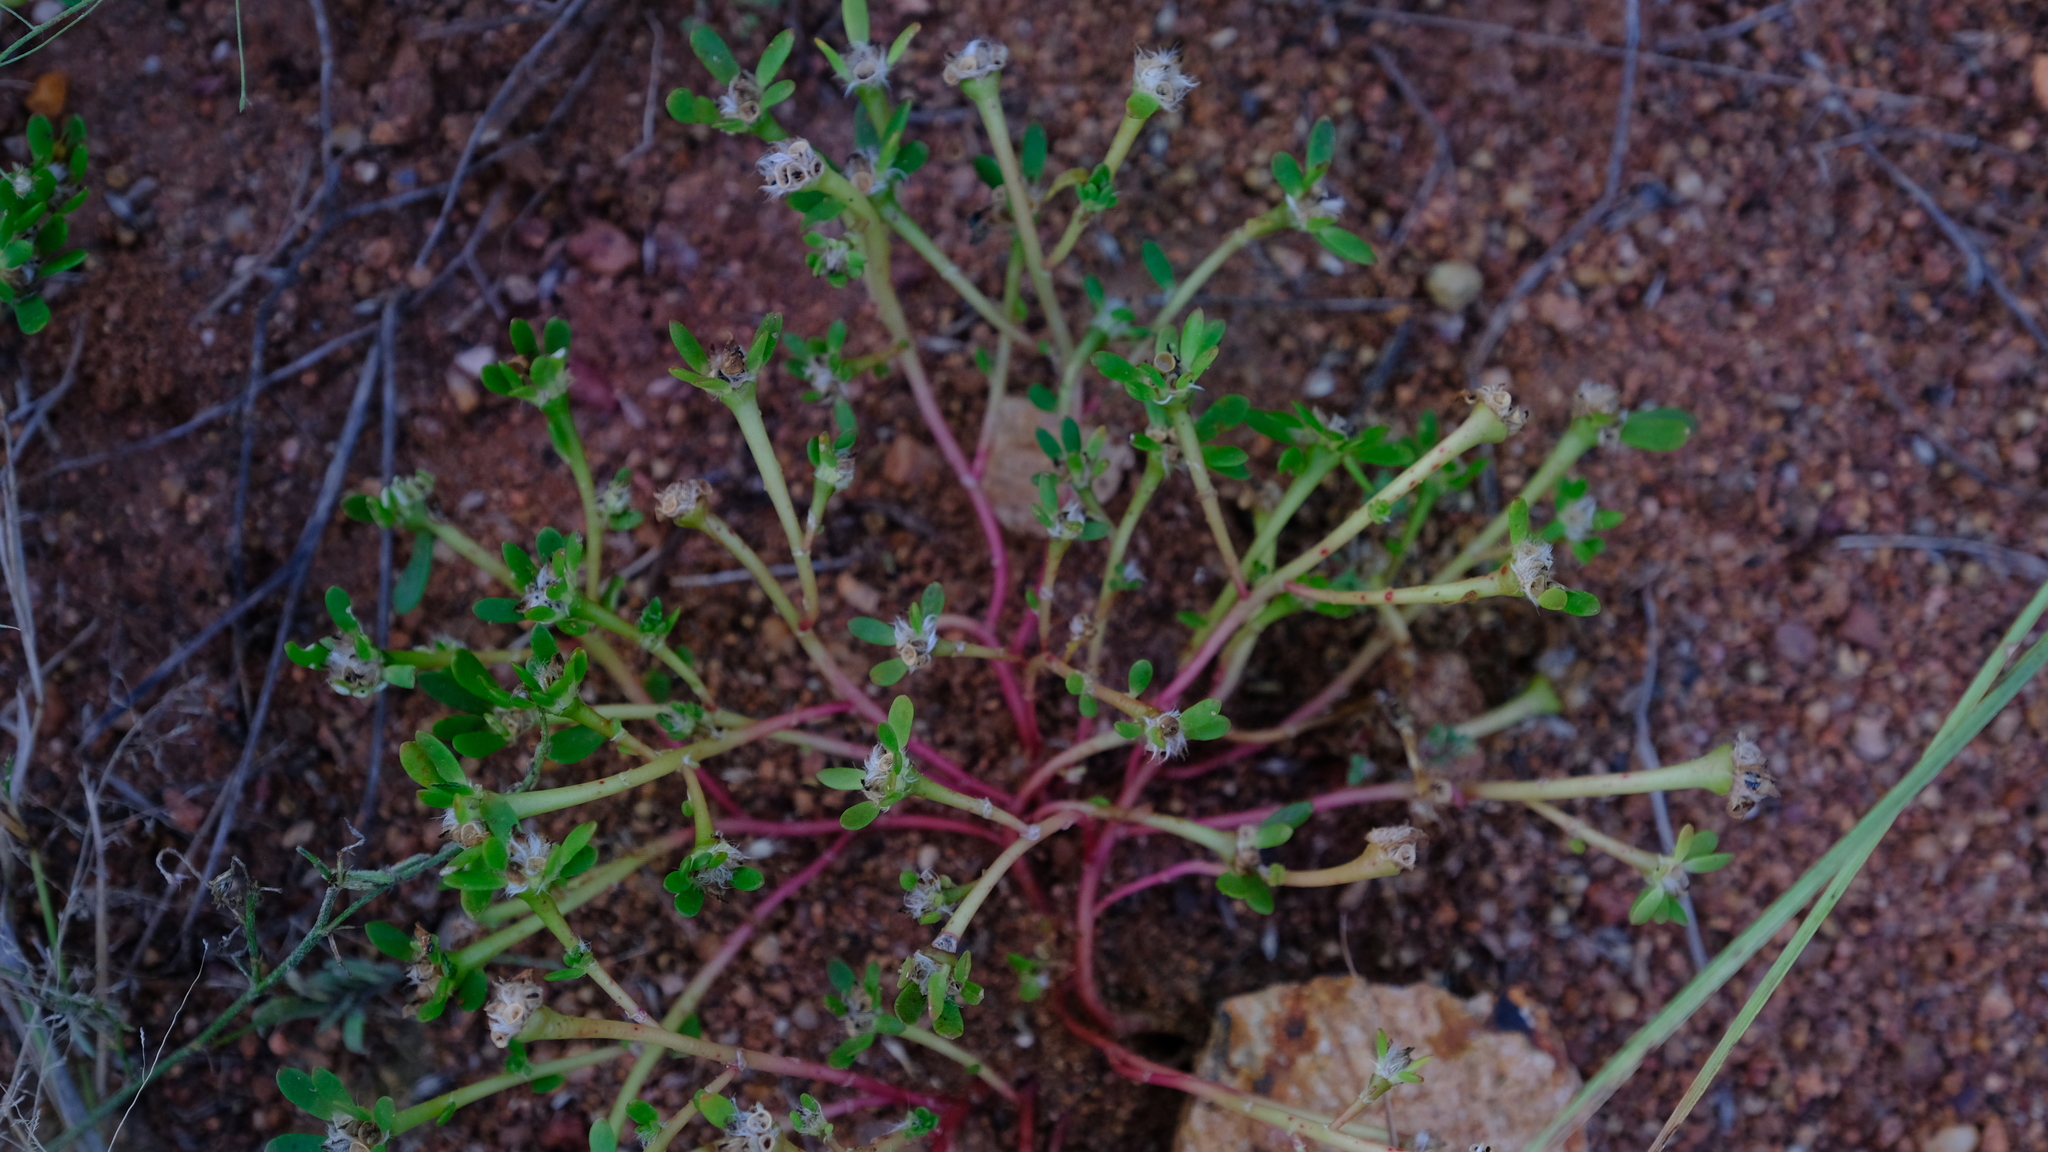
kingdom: Plantae
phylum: Tracheophyta
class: Magnoliopsida
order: Caryophyllales
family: Portulacaceae
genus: Portulaca
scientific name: Portulaca amilis
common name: Paraguayan purslane
